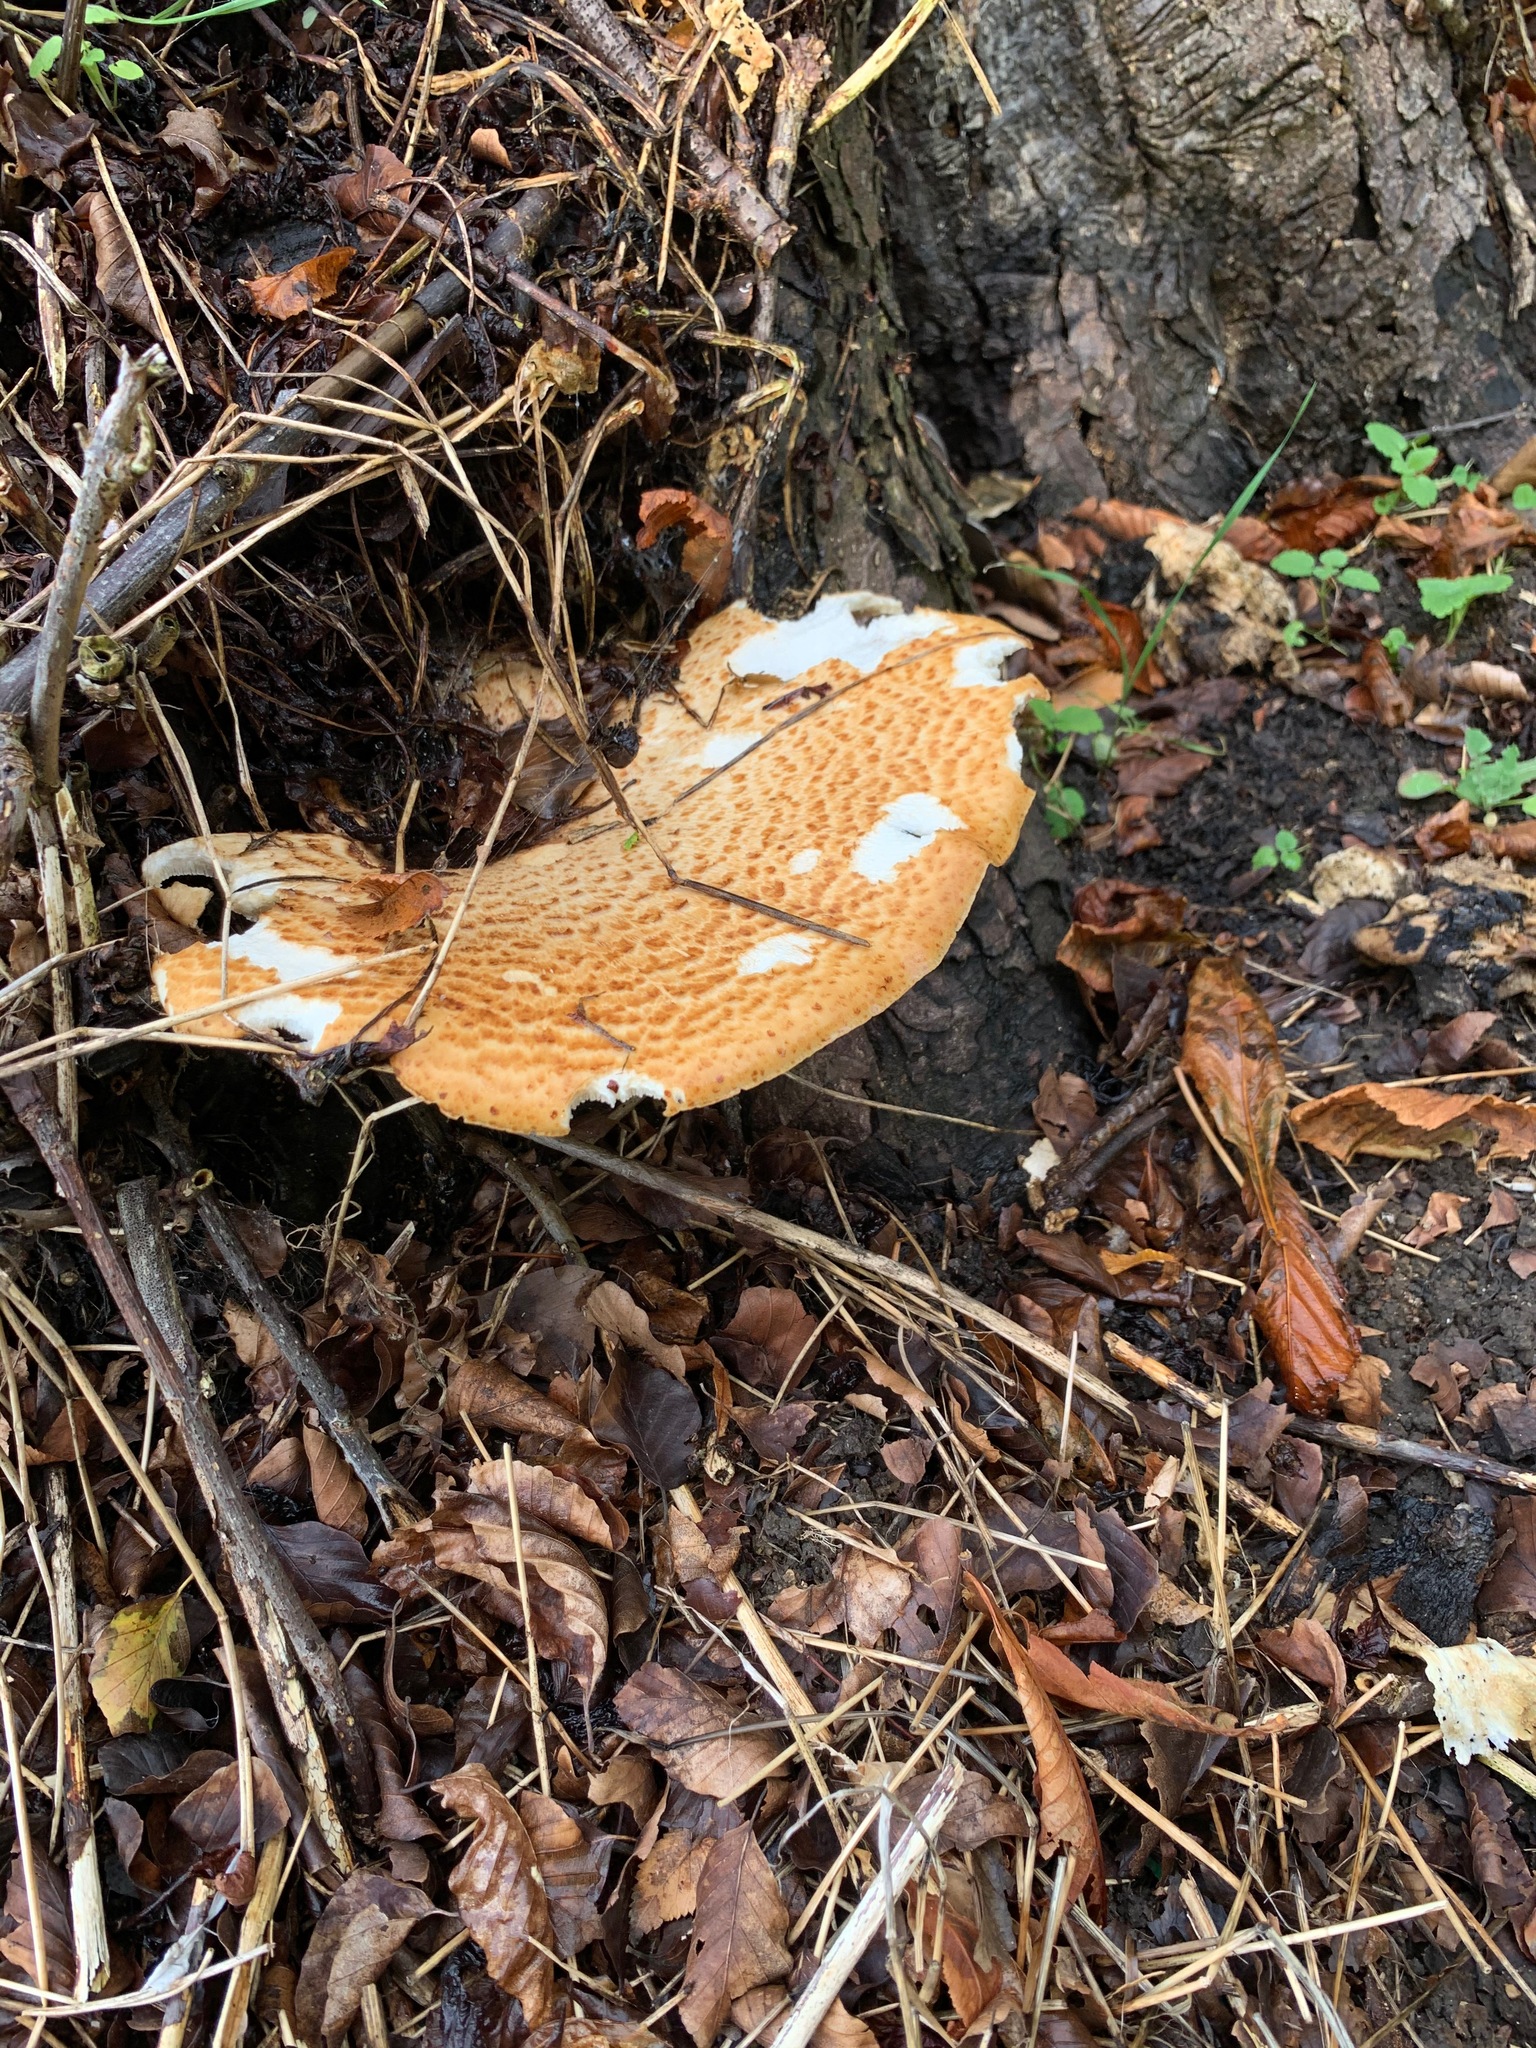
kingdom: Fungi
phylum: Basidiomycota
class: Agaricomycetes
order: Polyporales
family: Polyporaceae
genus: Cerioporus
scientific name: Cerioporus squamosus
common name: Dryad's saddle
